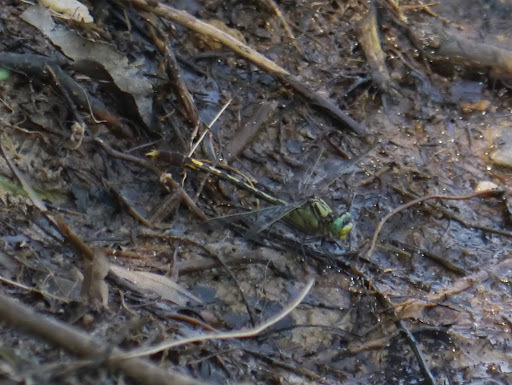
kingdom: Animalia
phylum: Arthropoda
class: Insecta
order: Odonata
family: Gomphidae
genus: Arigomphus
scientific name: Arigomphus villosipes
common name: Unicorn clubtail
